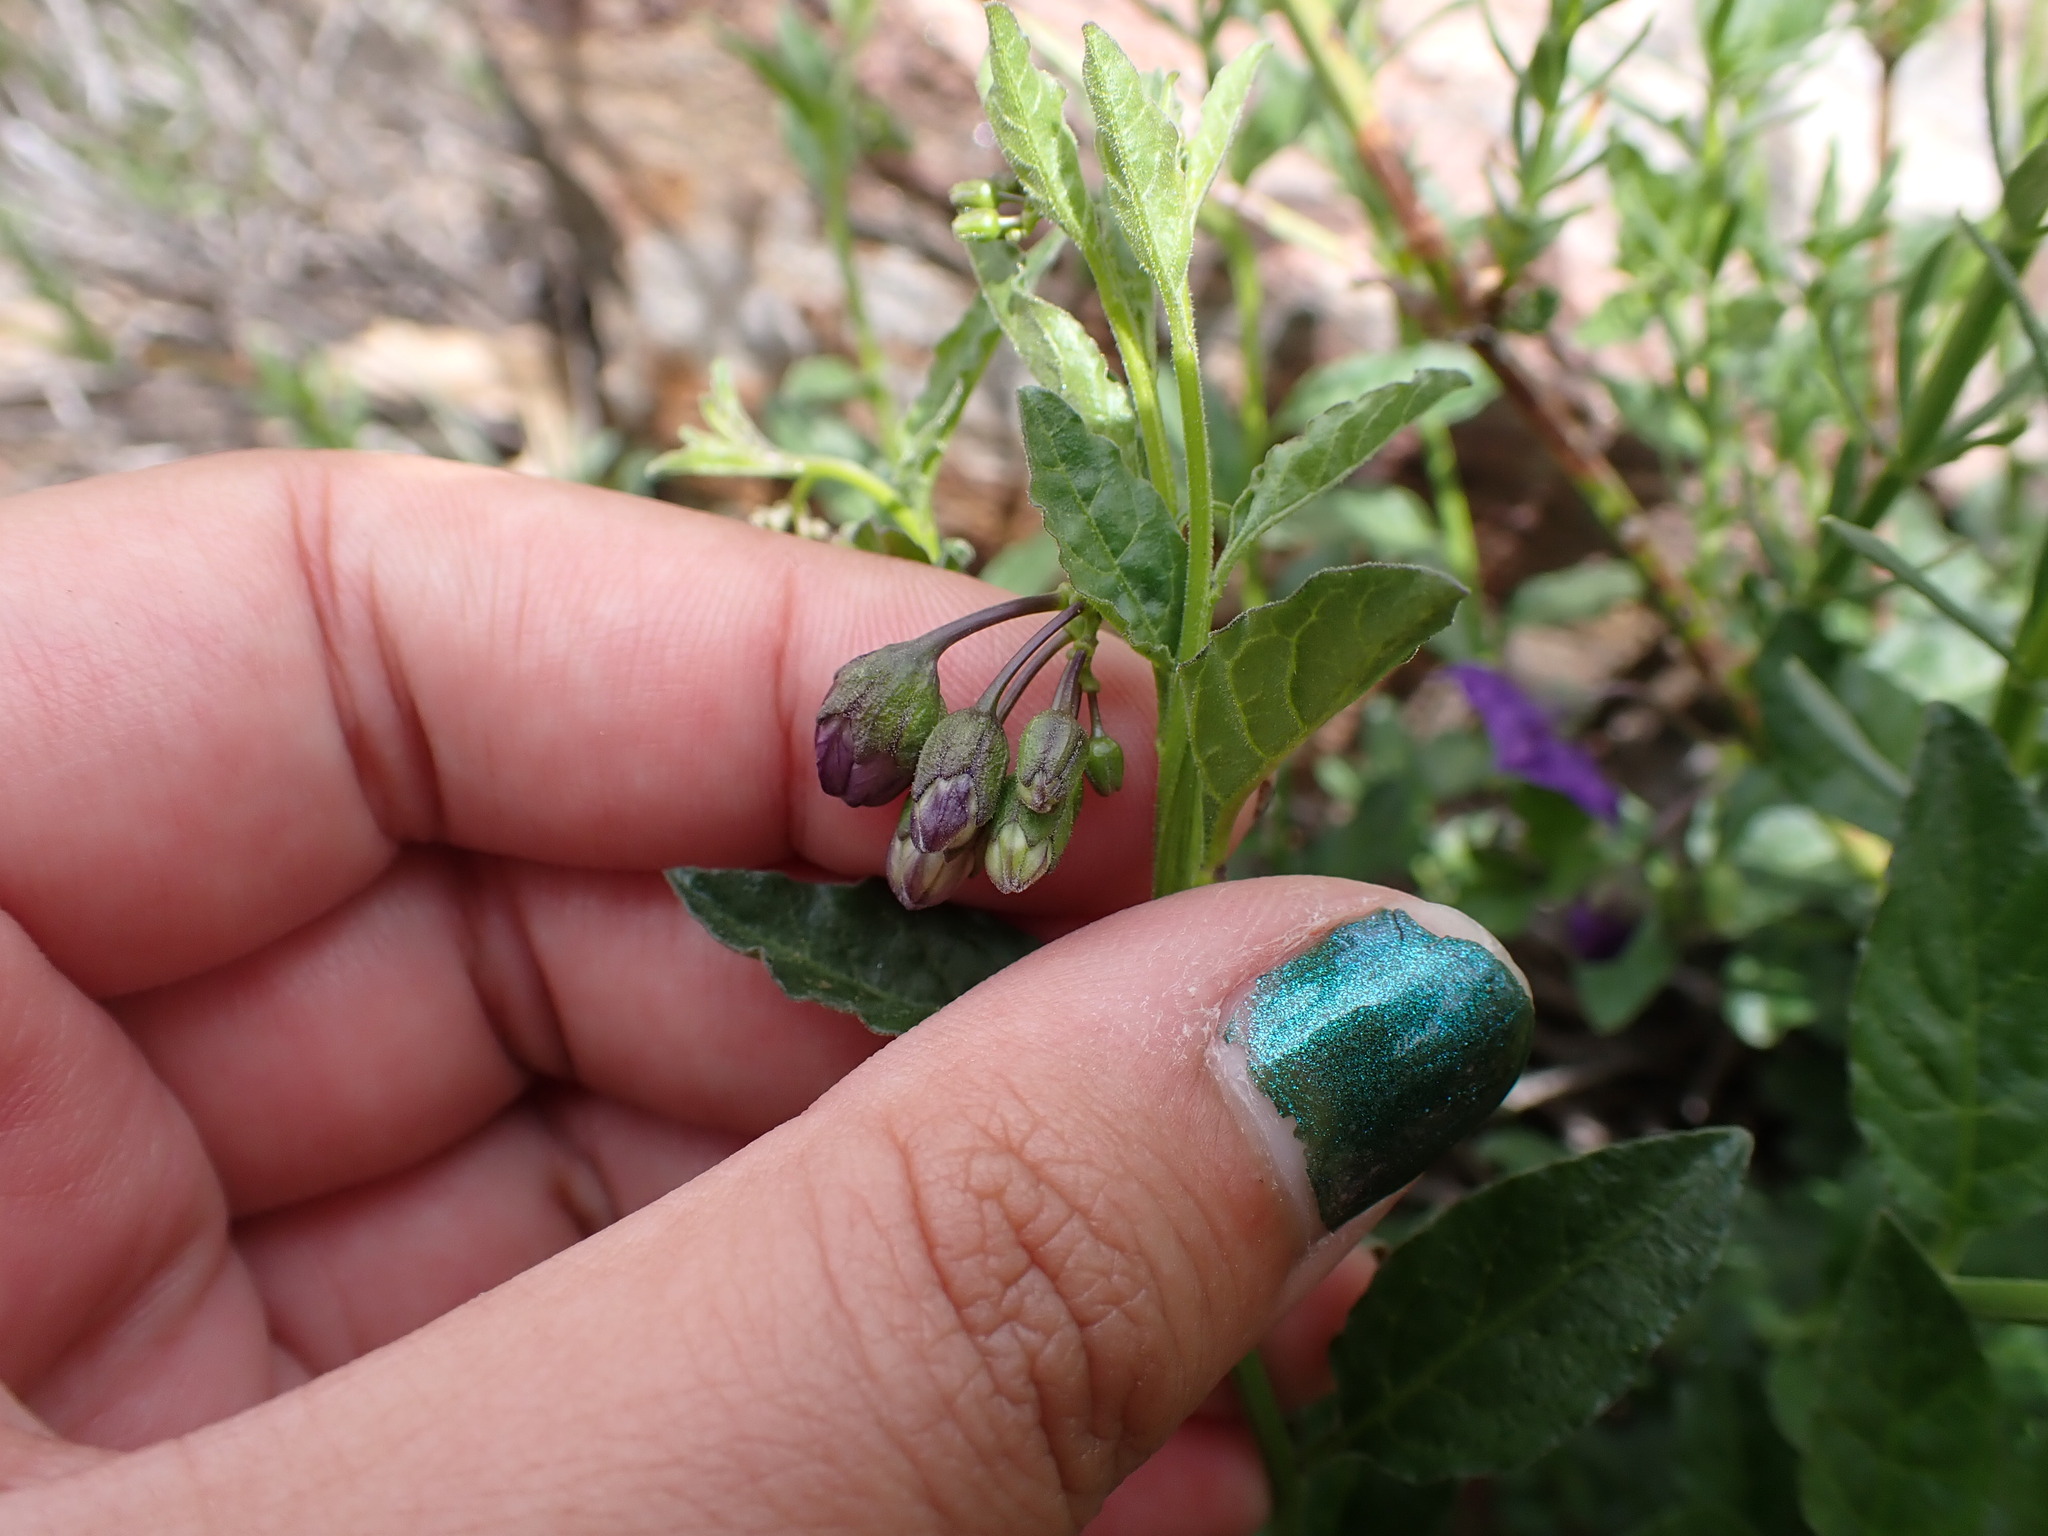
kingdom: Plantae
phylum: Tracheophyta
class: Magnoliopsida
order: Solanales
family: Solanaceae
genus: Solanum
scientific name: Solanum umbelliferum
